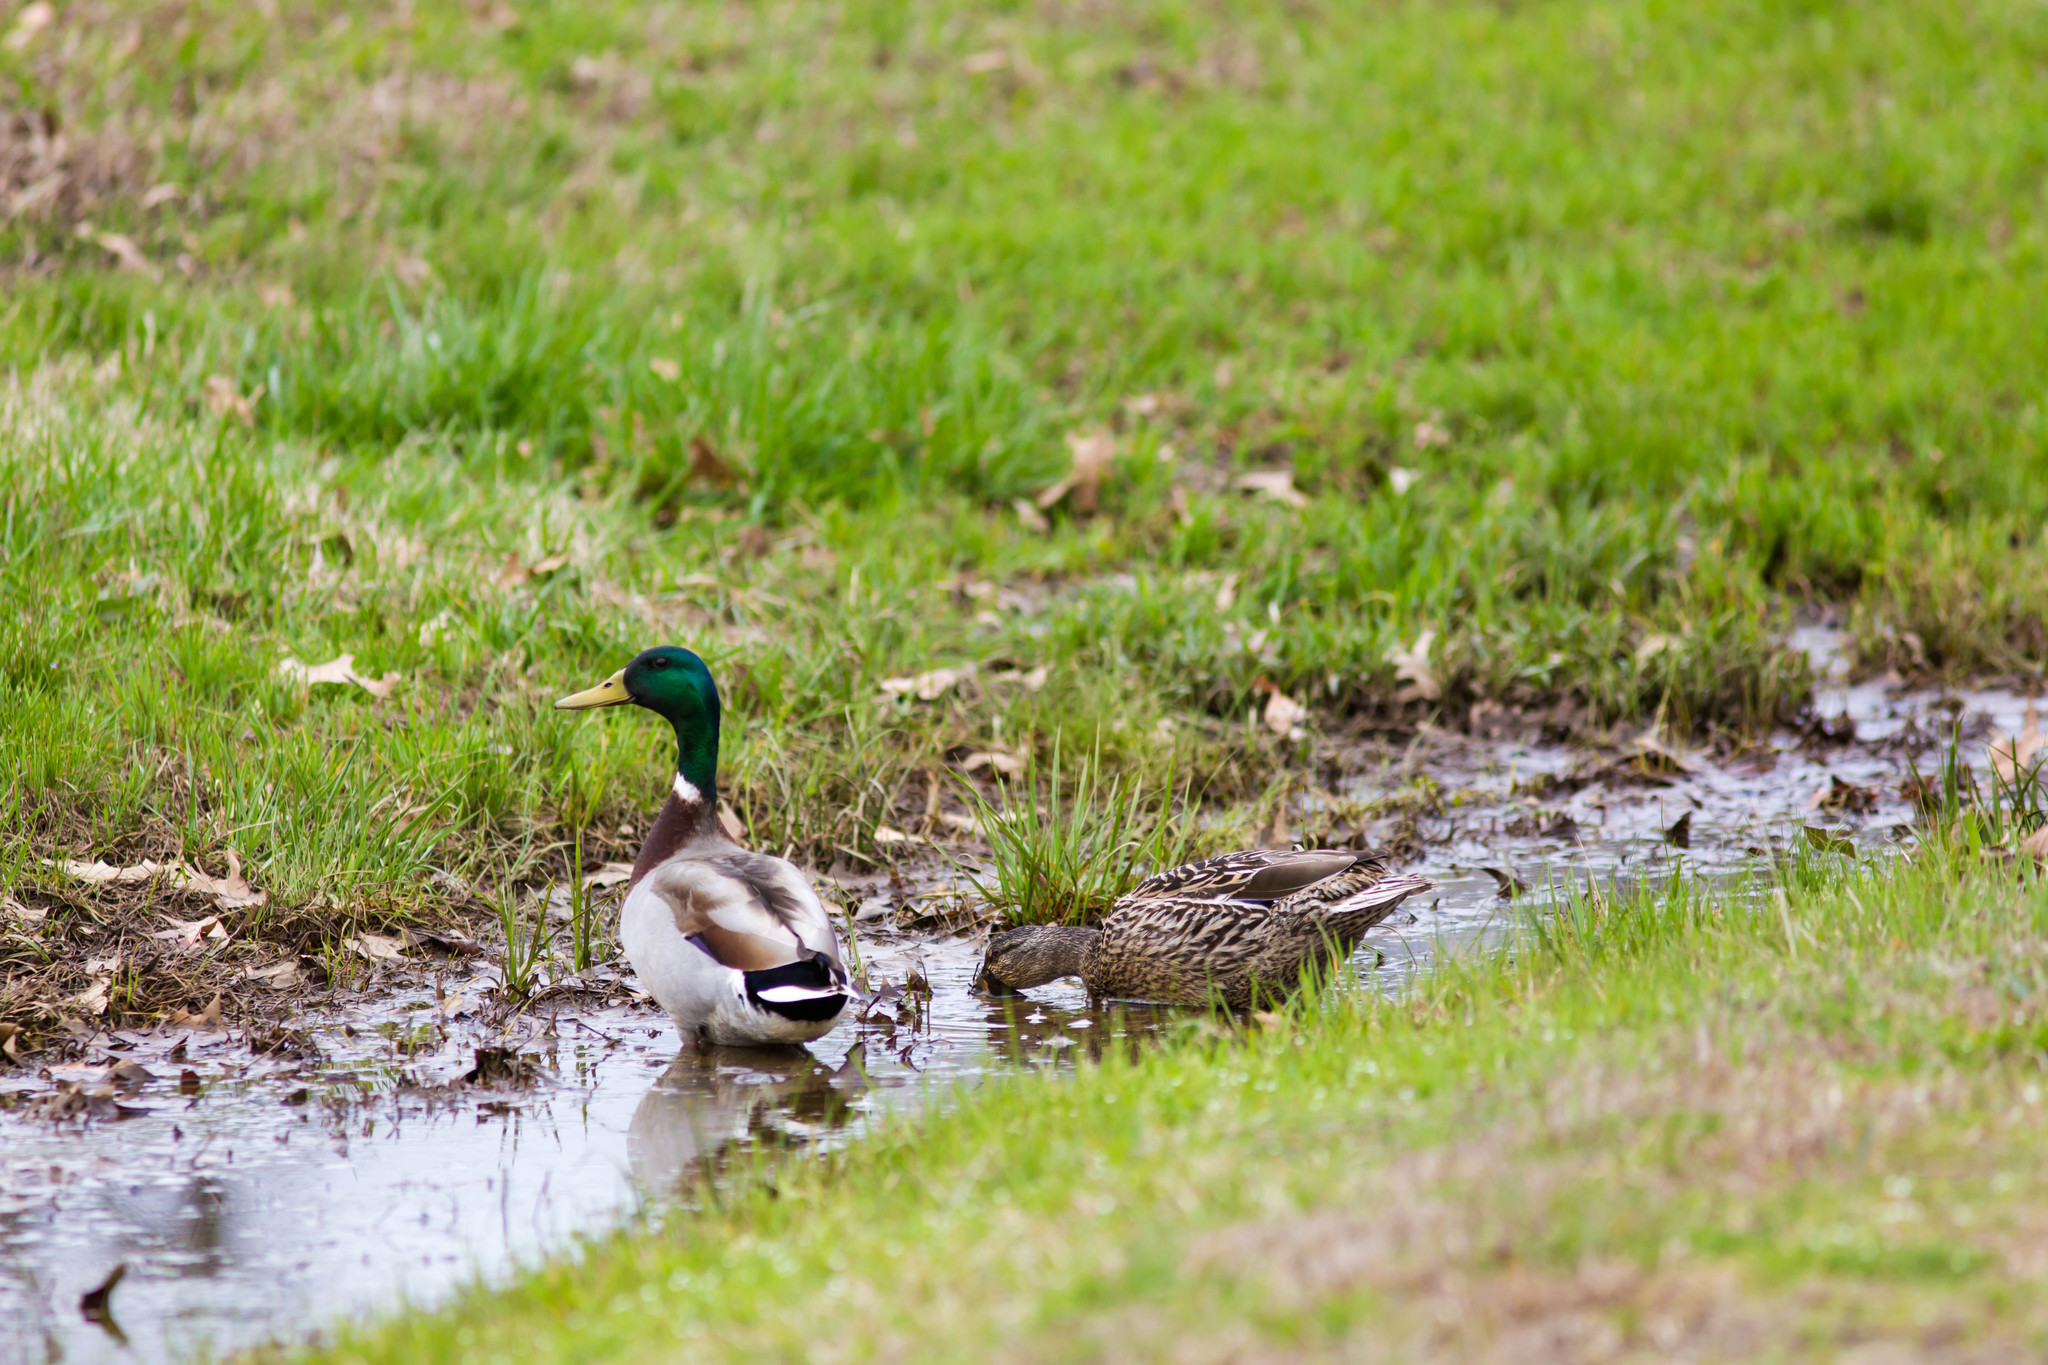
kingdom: Animalia
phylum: Chordata
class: Aves
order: Anseriformes
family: Anatidae
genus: Anas
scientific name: Anas platyrhynchos
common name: Mallard
